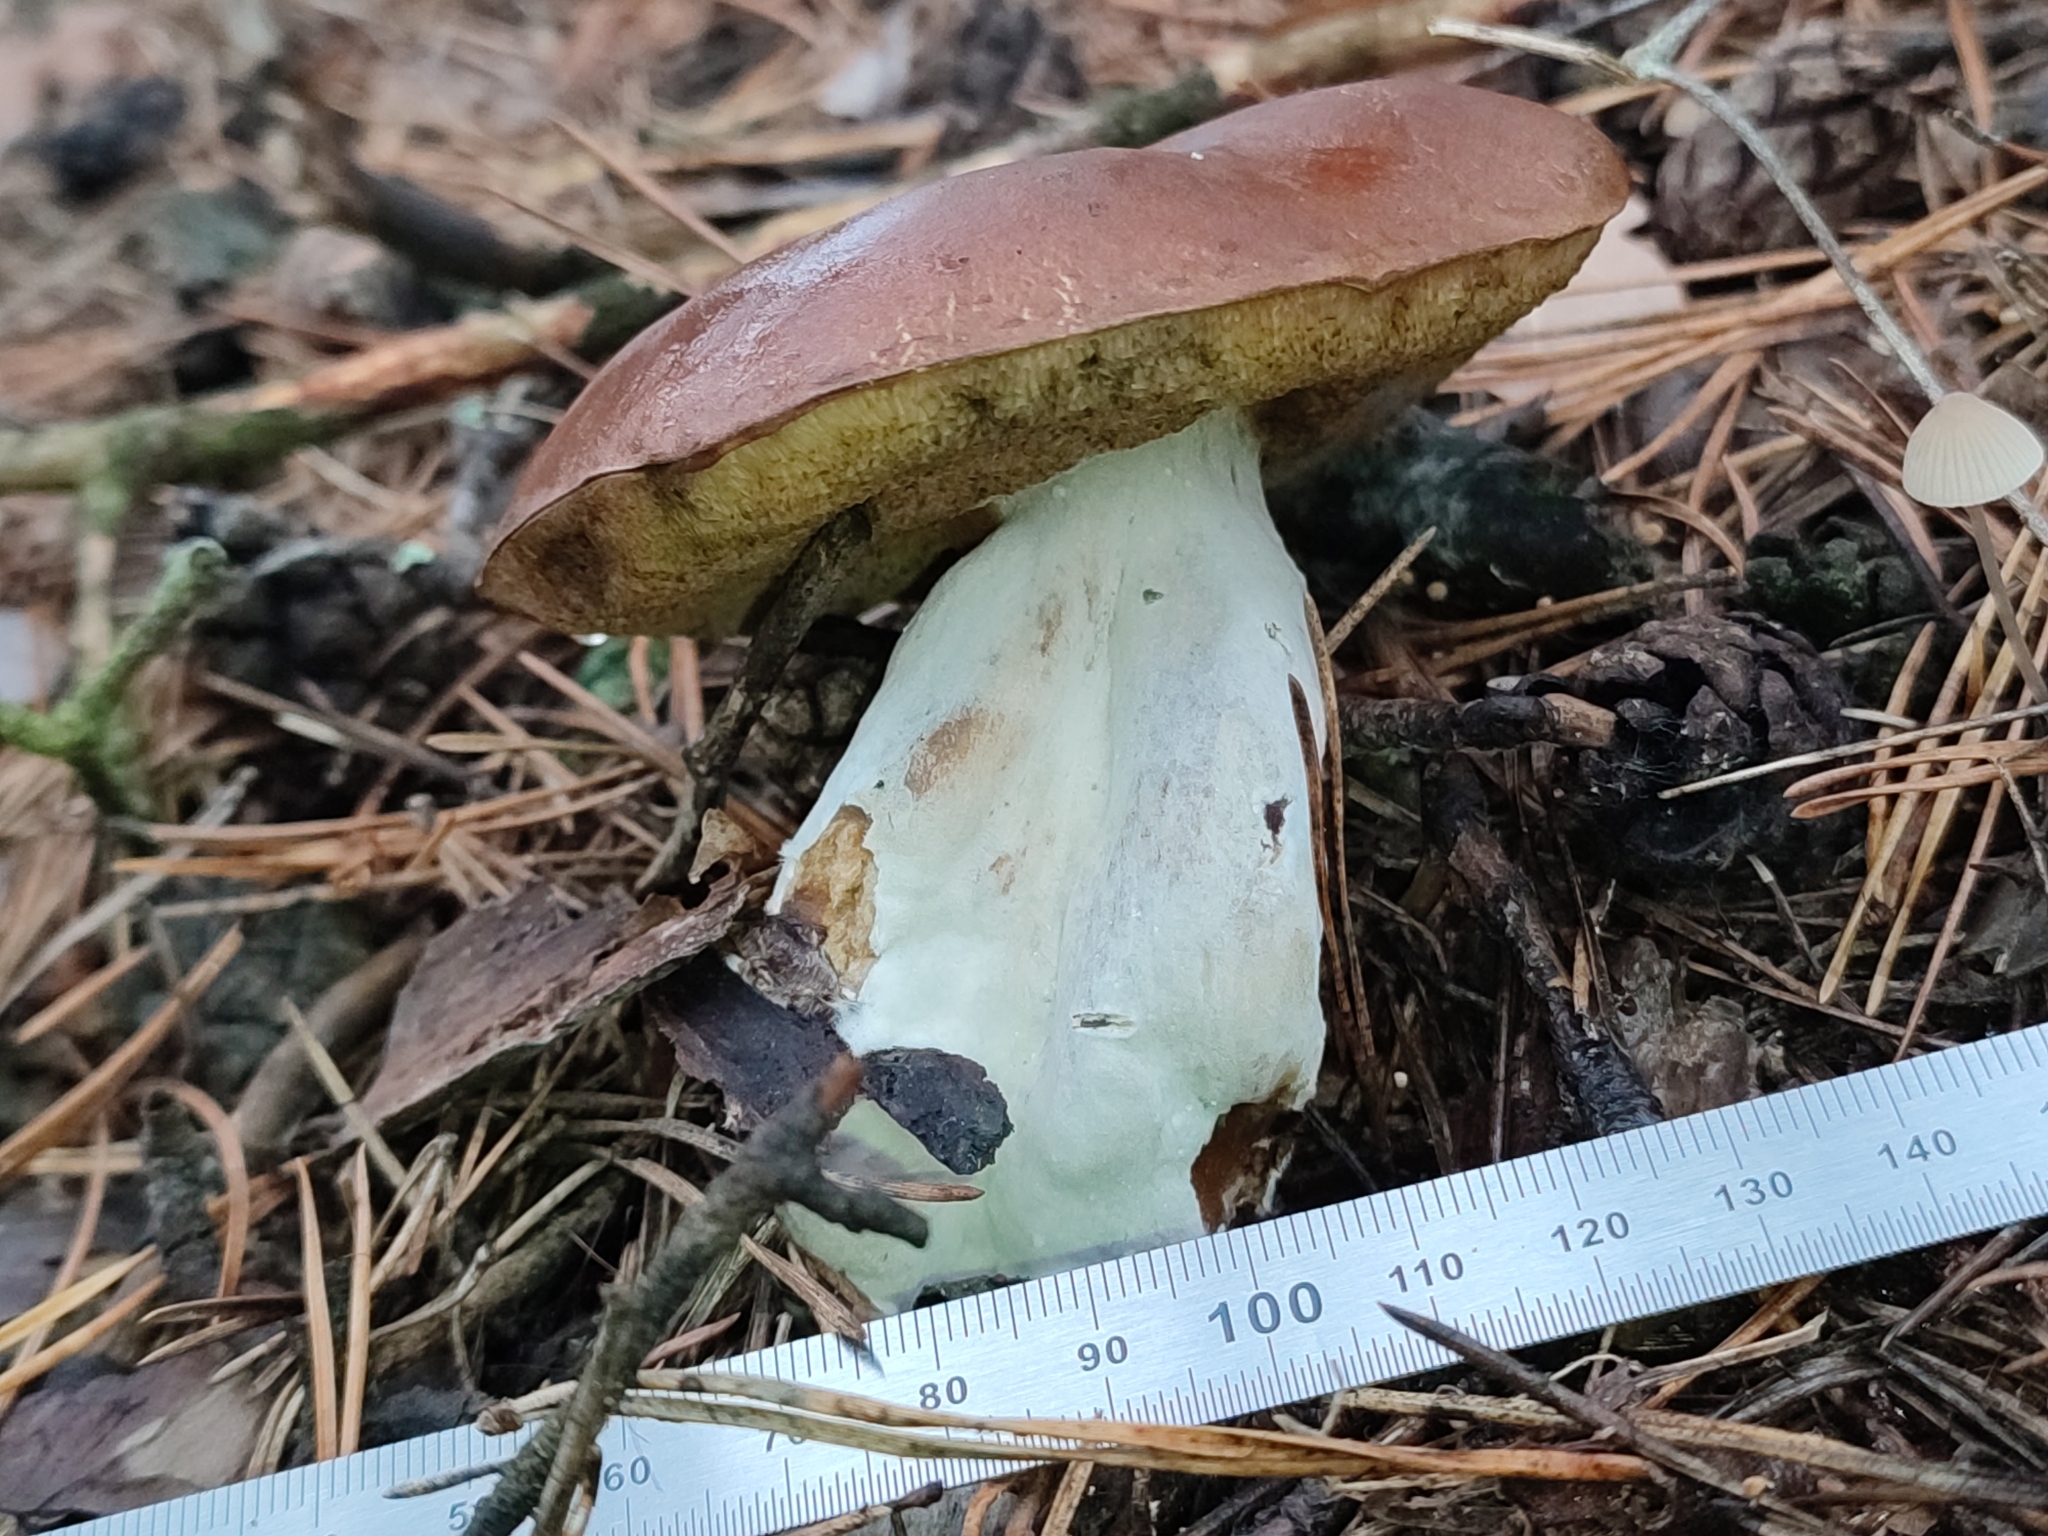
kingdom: Fungi
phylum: Basidiomycota
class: Agaricomycetes
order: Boletales
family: Boletaceae
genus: Imleria
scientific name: Imleria badia
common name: Bay bolete
